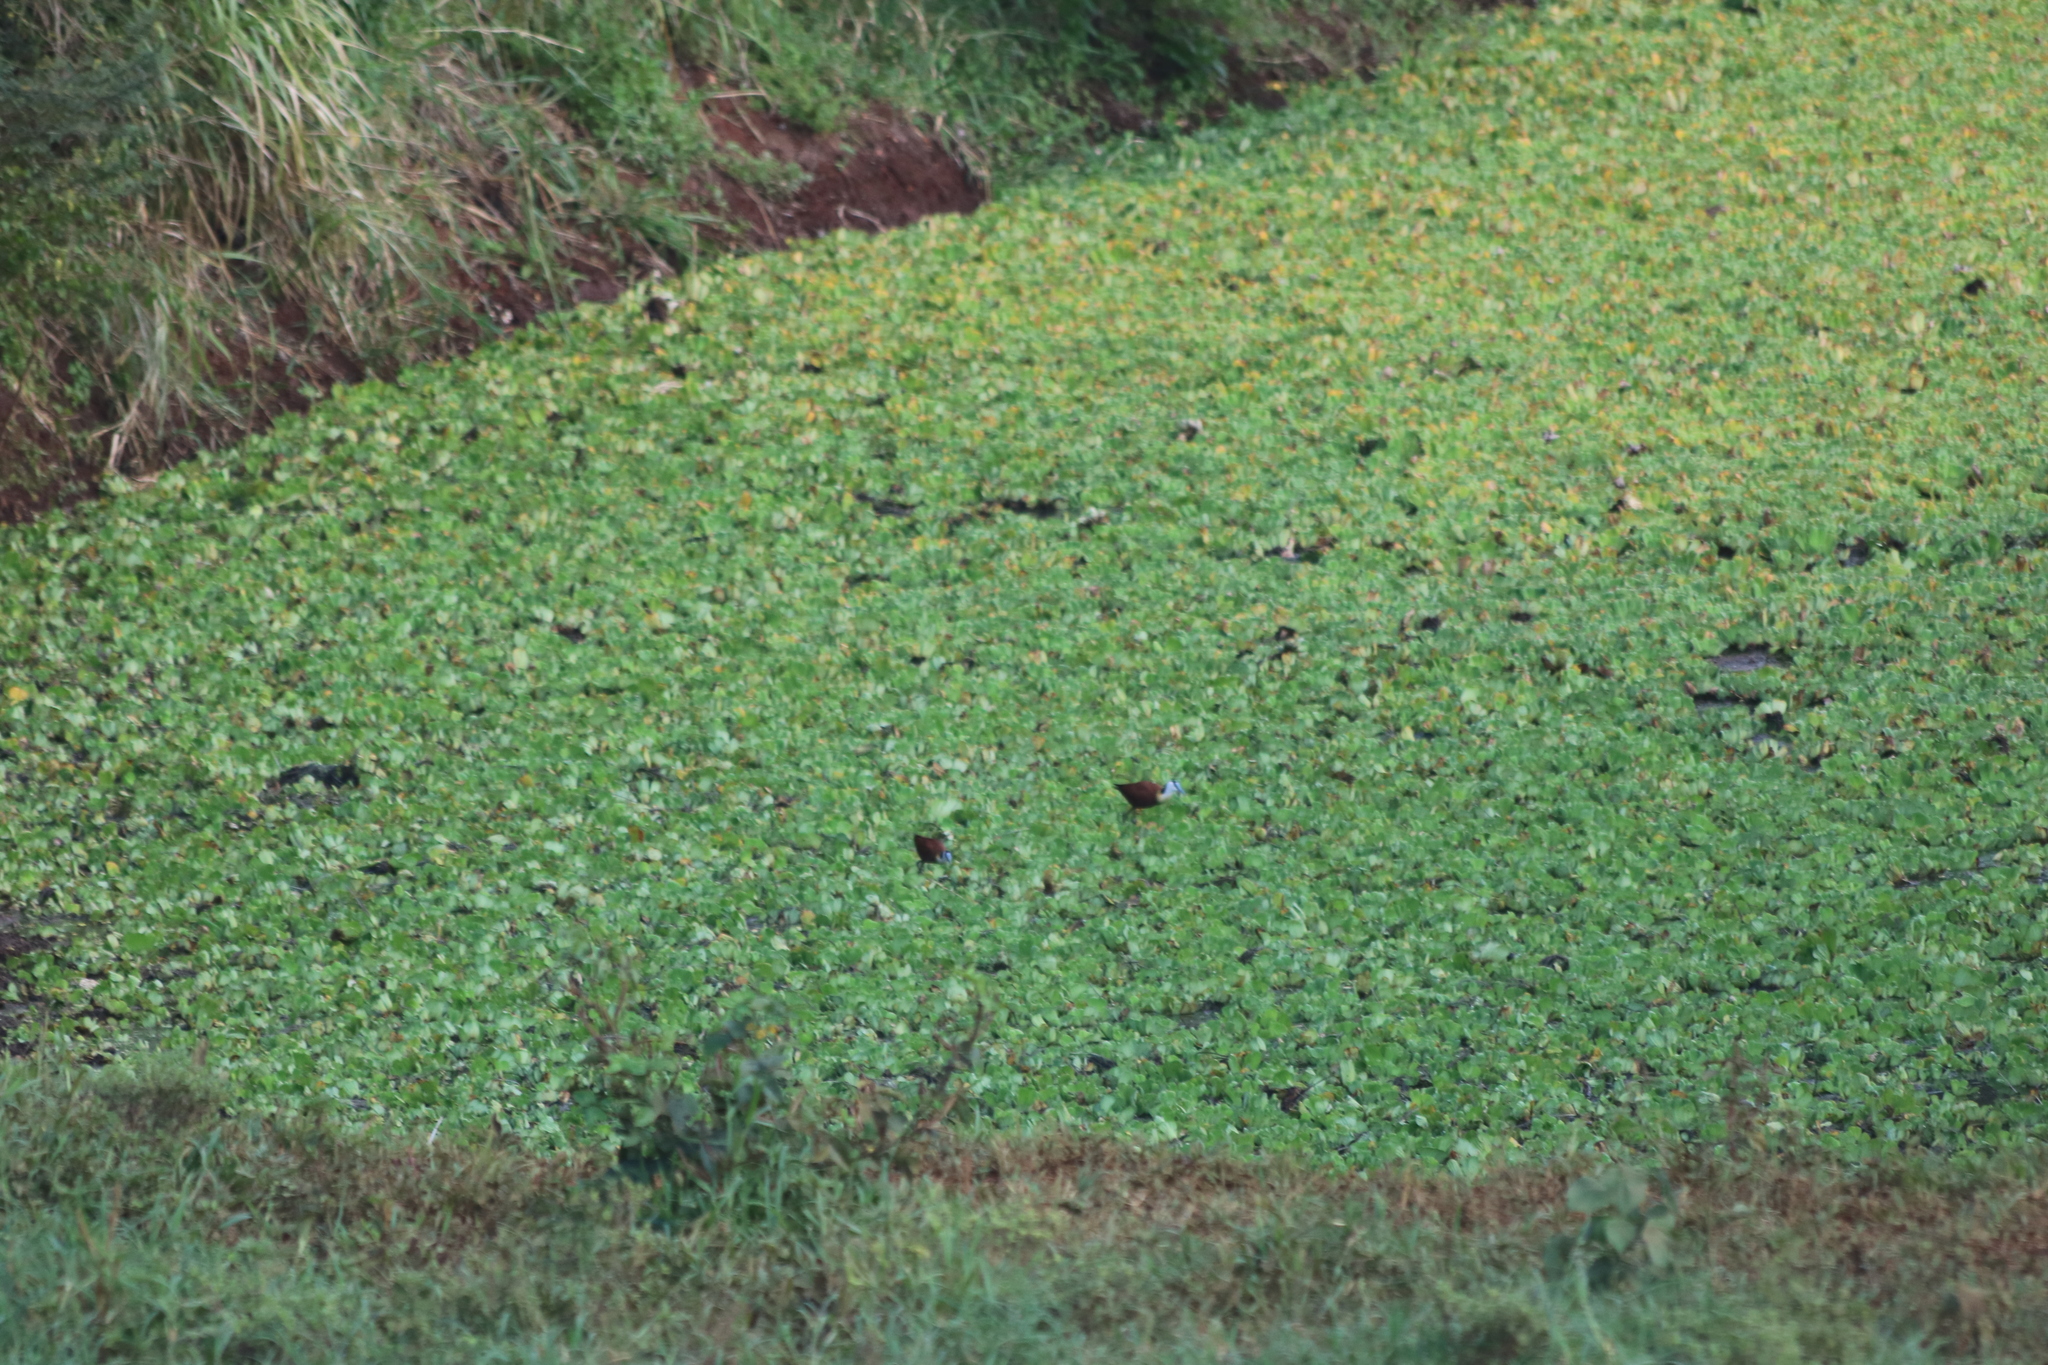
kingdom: Animalia
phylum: Chordata
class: Aves
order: Charadriiformes
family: Jacanidae
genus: Actophilornis
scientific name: Actophilornis africanus
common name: African jacana
